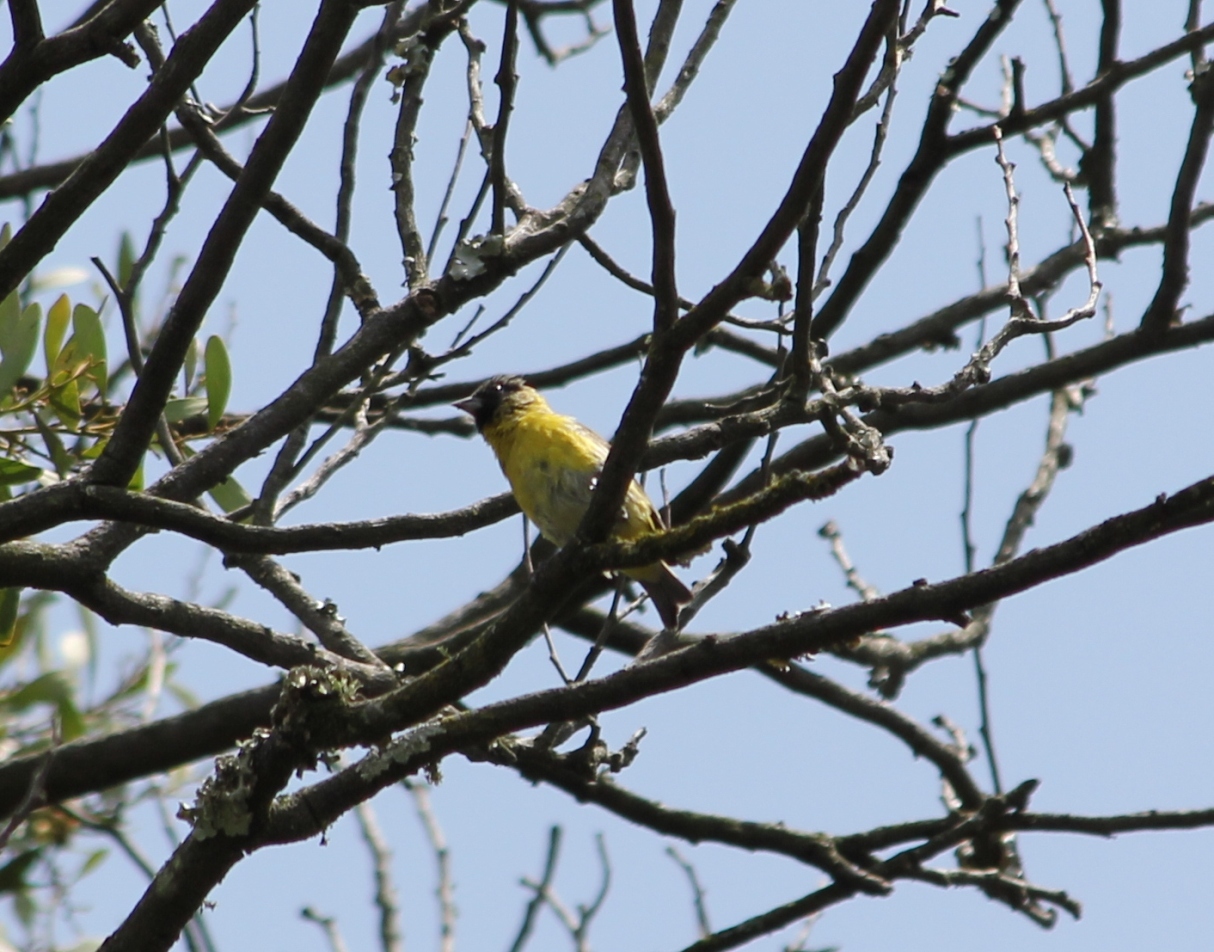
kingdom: Animalia
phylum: Chordata
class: Aves
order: Passeriformes
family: Fringillidae
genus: Spinus
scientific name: Spinus magellanicus
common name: Hooded siskin
